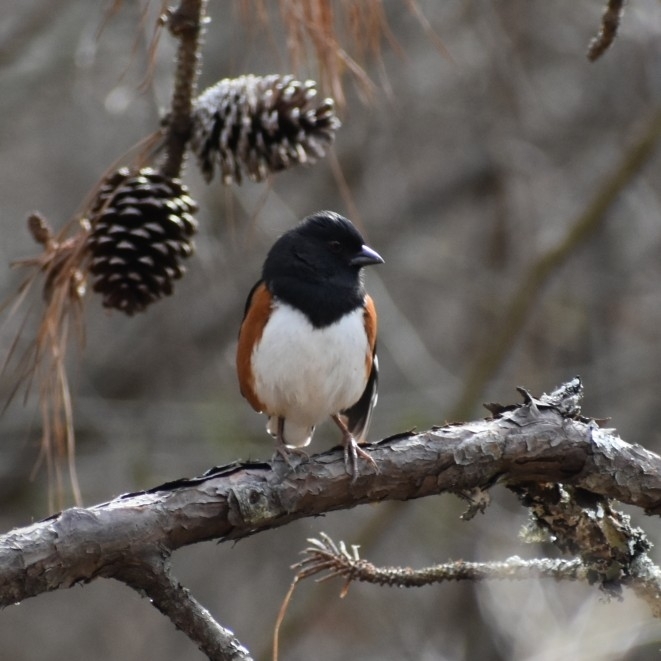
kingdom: Animalia
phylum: Chordata
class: Aves
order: Passeriformes
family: Passerellidae
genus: Pipilo
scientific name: Pipilo erythrophthalmus
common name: Eastern towhee
